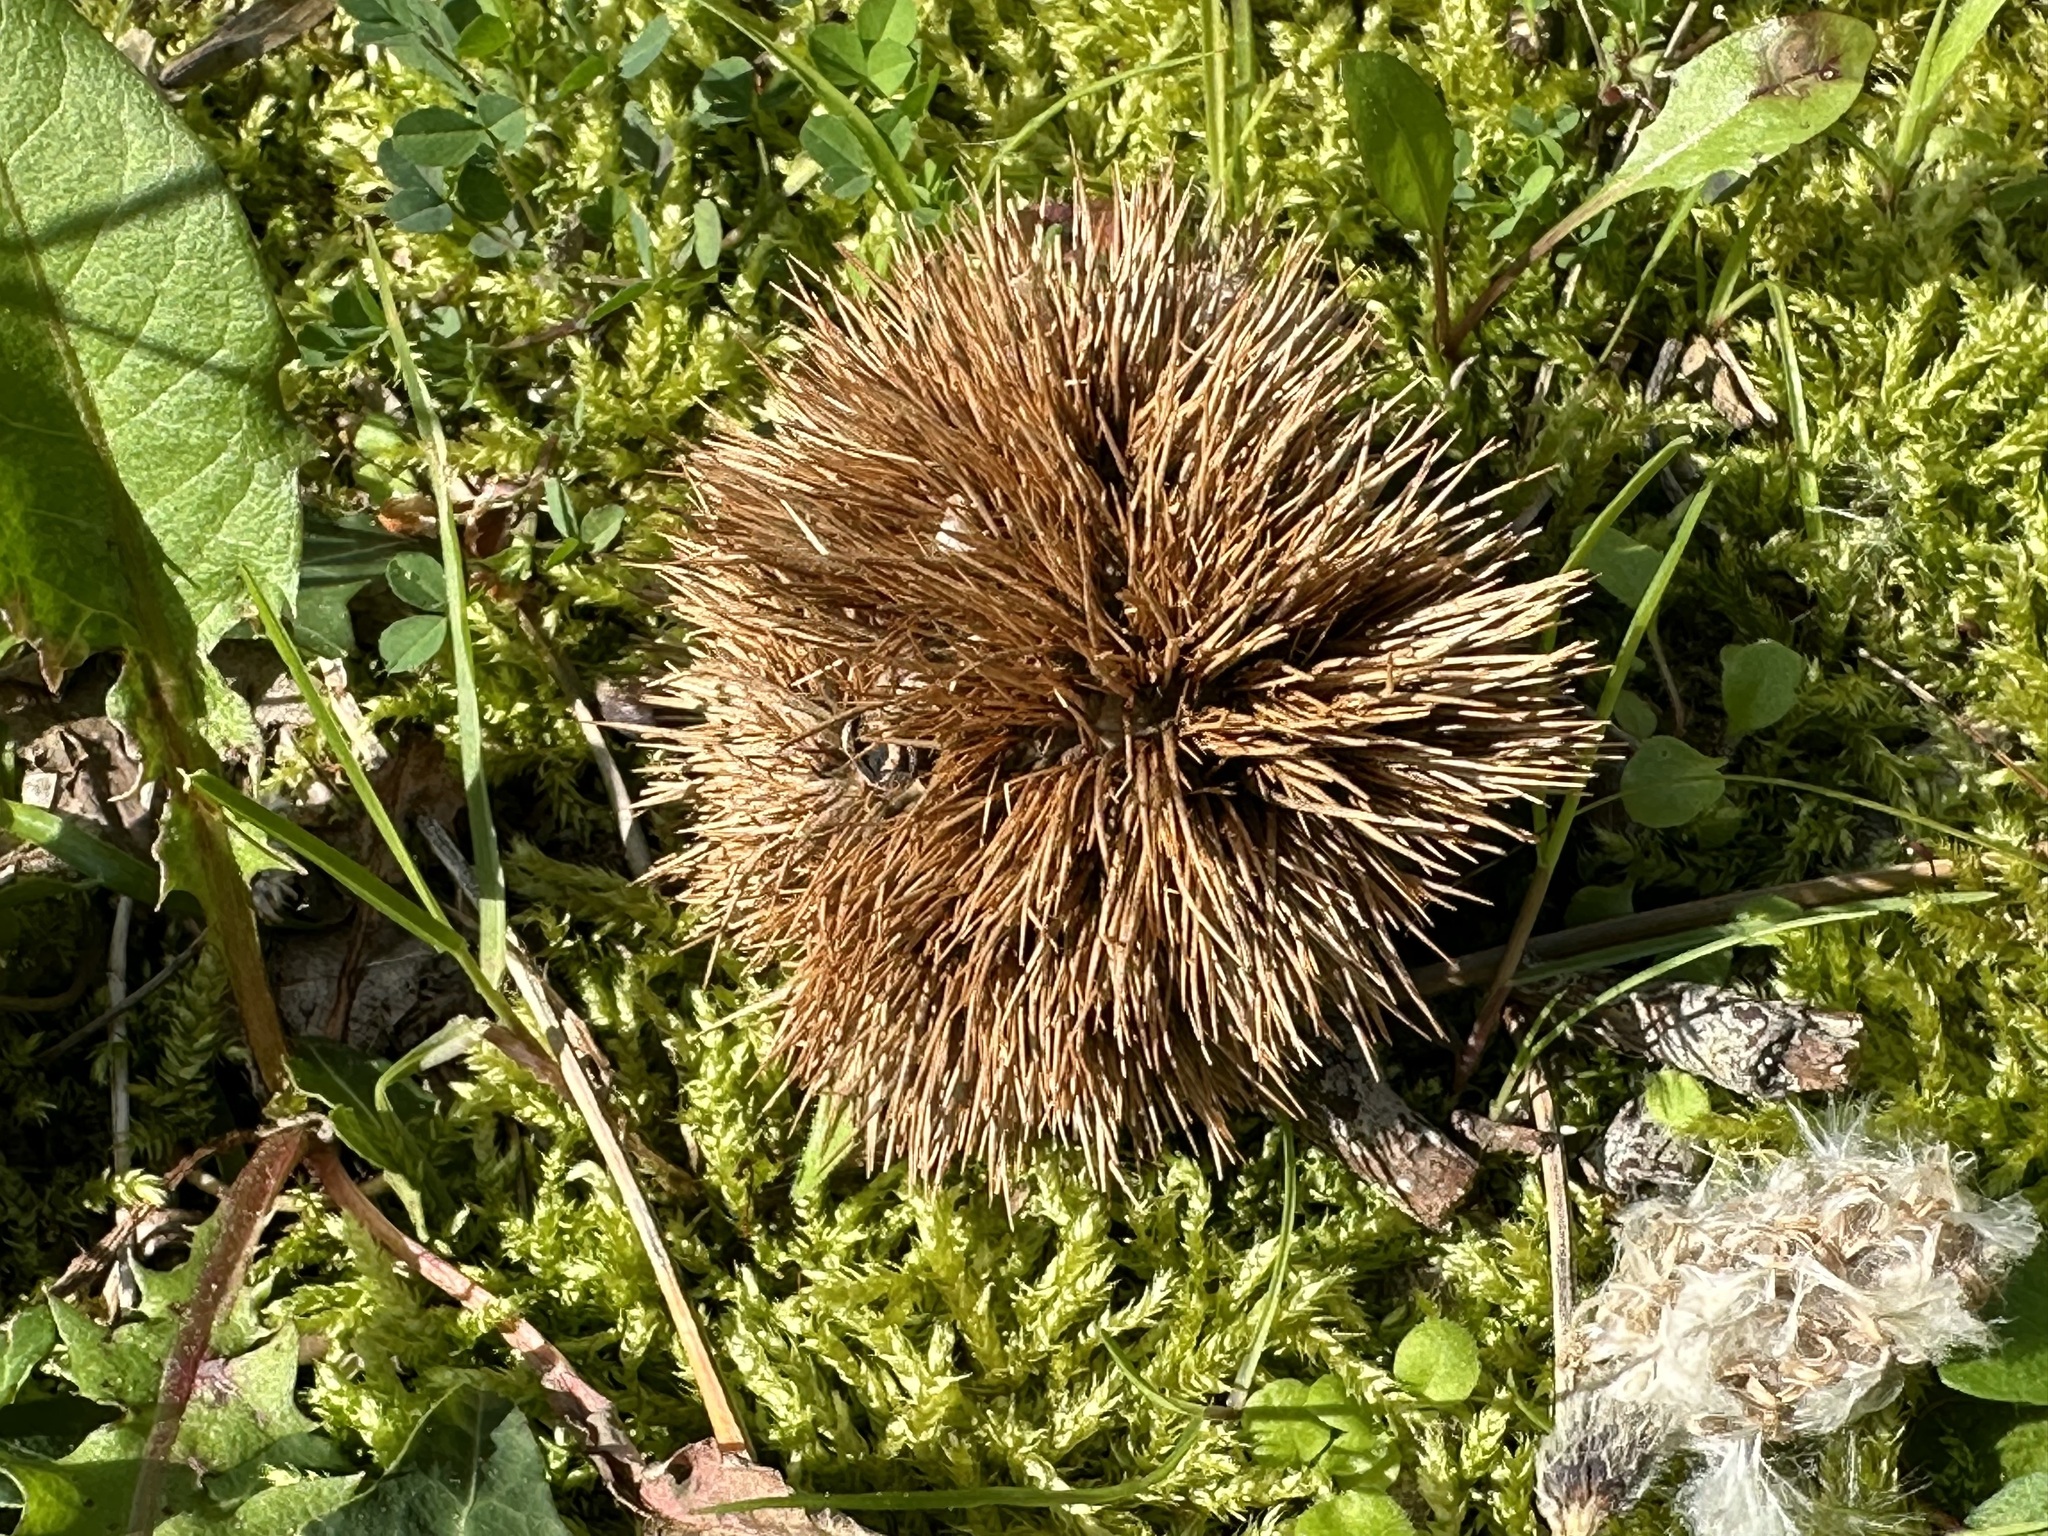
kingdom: Plantae
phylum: Tracheophyta
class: Magnoliopsida
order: Fagales
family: Fagaceae
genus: Castanea
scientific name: Castanea sativa
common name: Sweet chestnut
